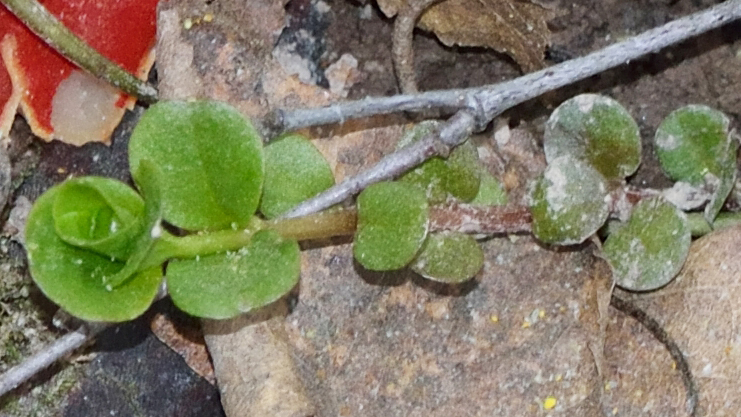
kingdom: Plantae
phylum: Tracheophyta
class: Magnoliopsida
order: Ericales
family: Primulaceae
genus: Lysimachia
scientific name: Lysimachia nummularia
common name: Moneywort
